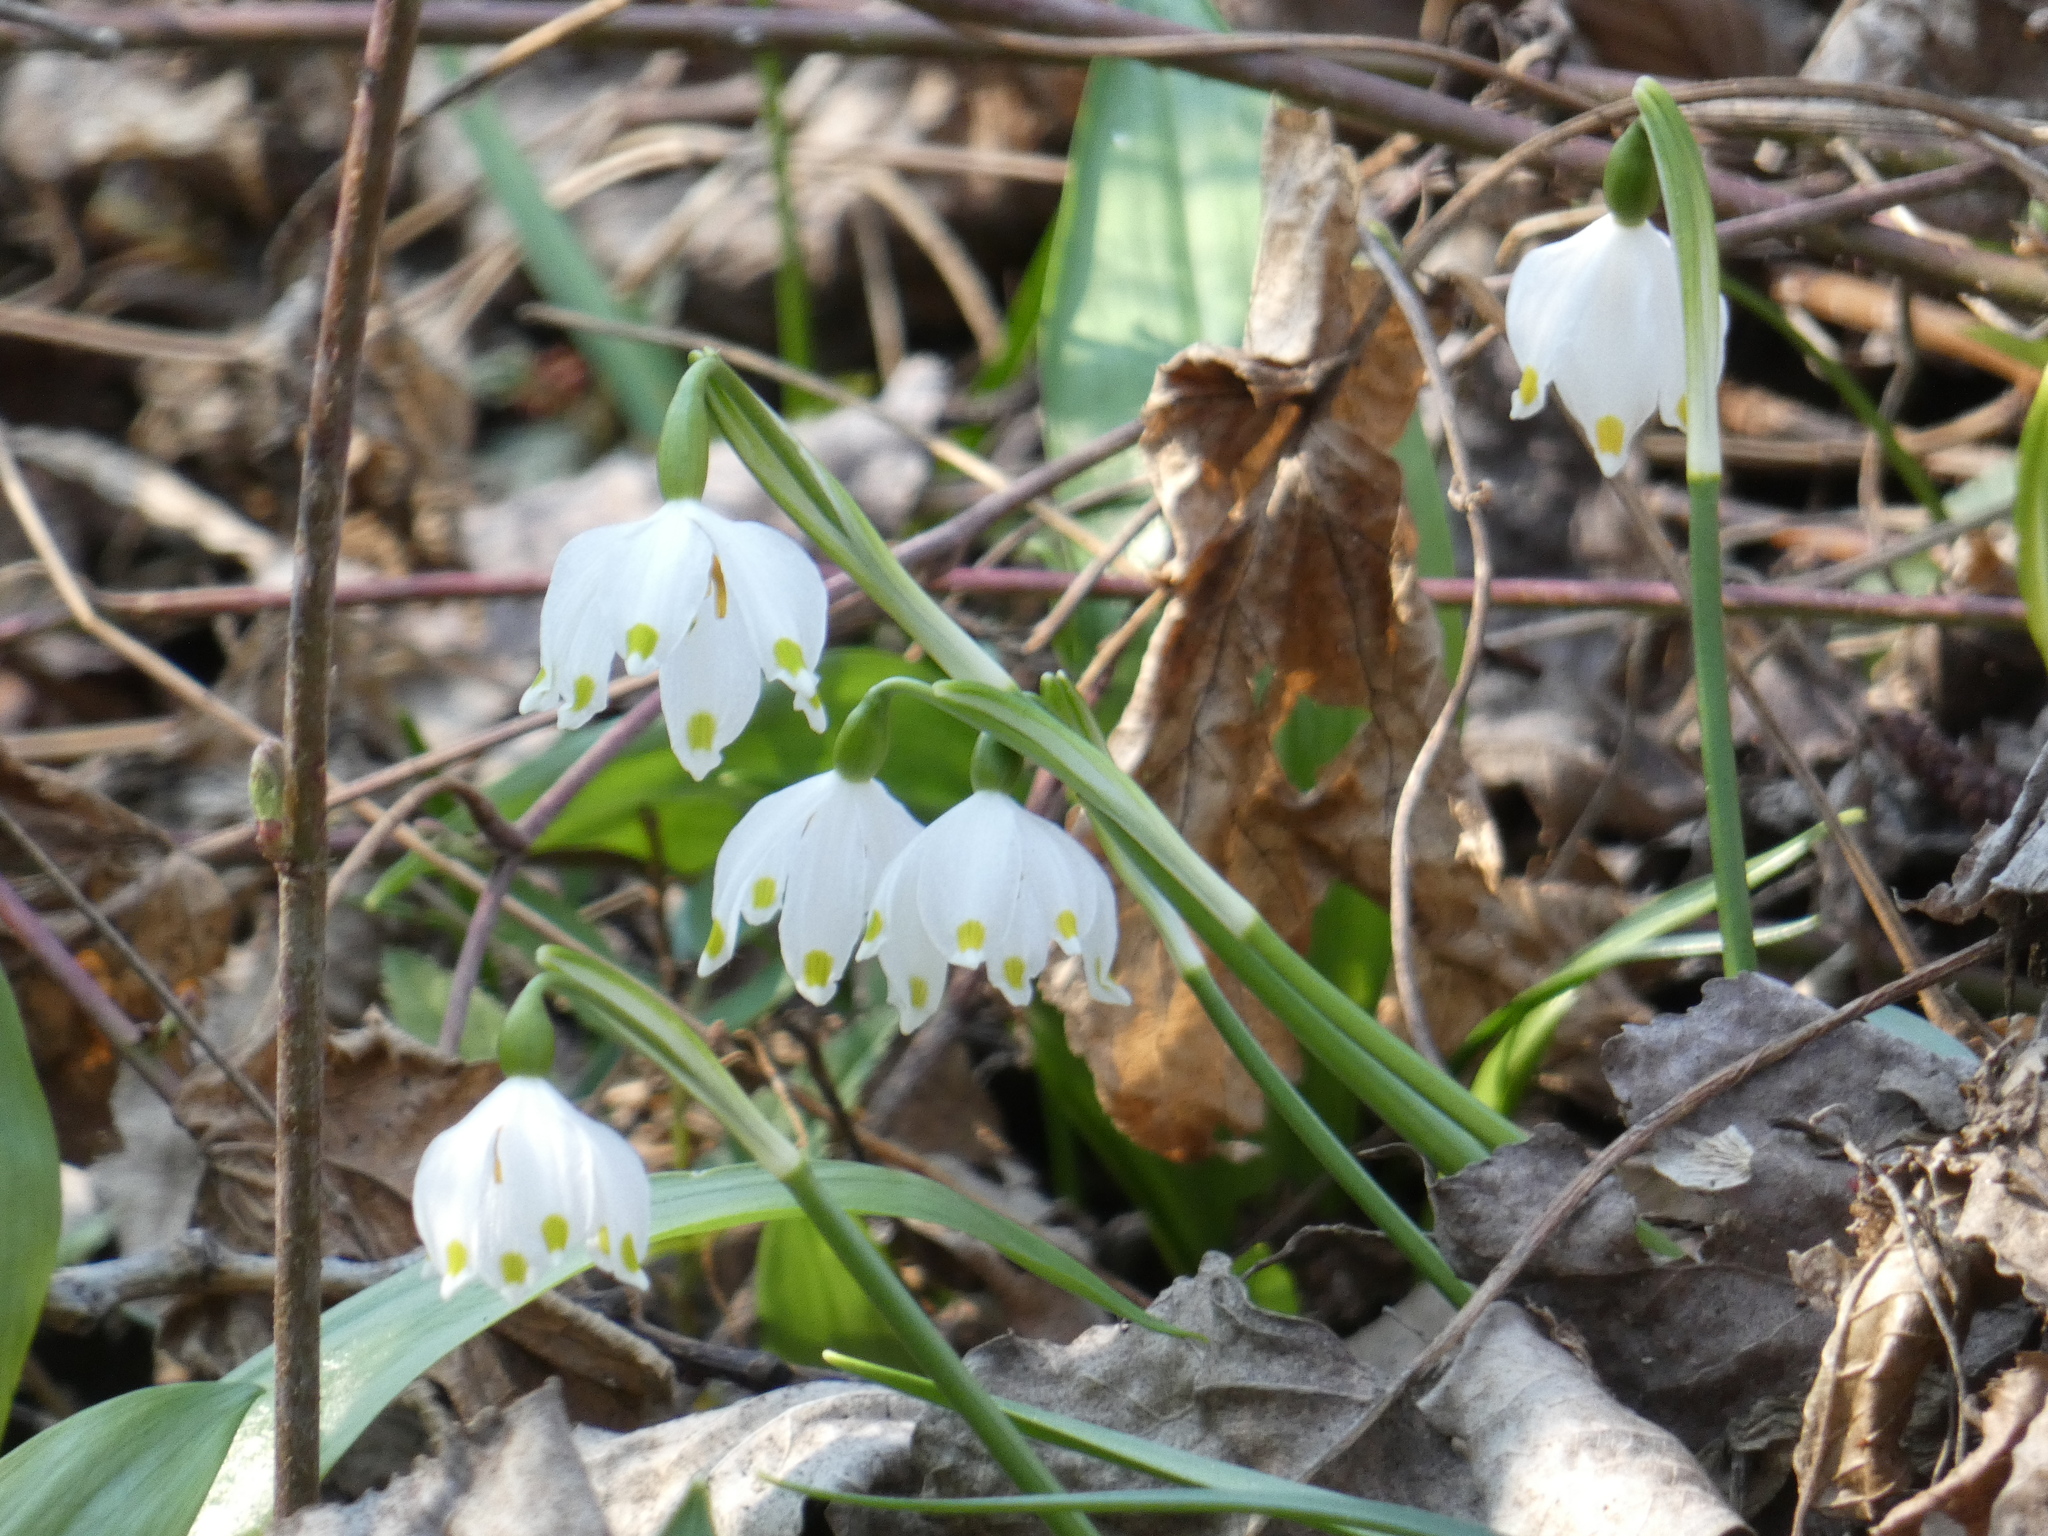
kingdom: Plantae
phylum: Tracheophyta
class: Liliopsida
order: Asparagales
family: Amaryllidaceae
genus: Leucojum
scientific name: Leucojum vernum
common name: Spring snowflake
